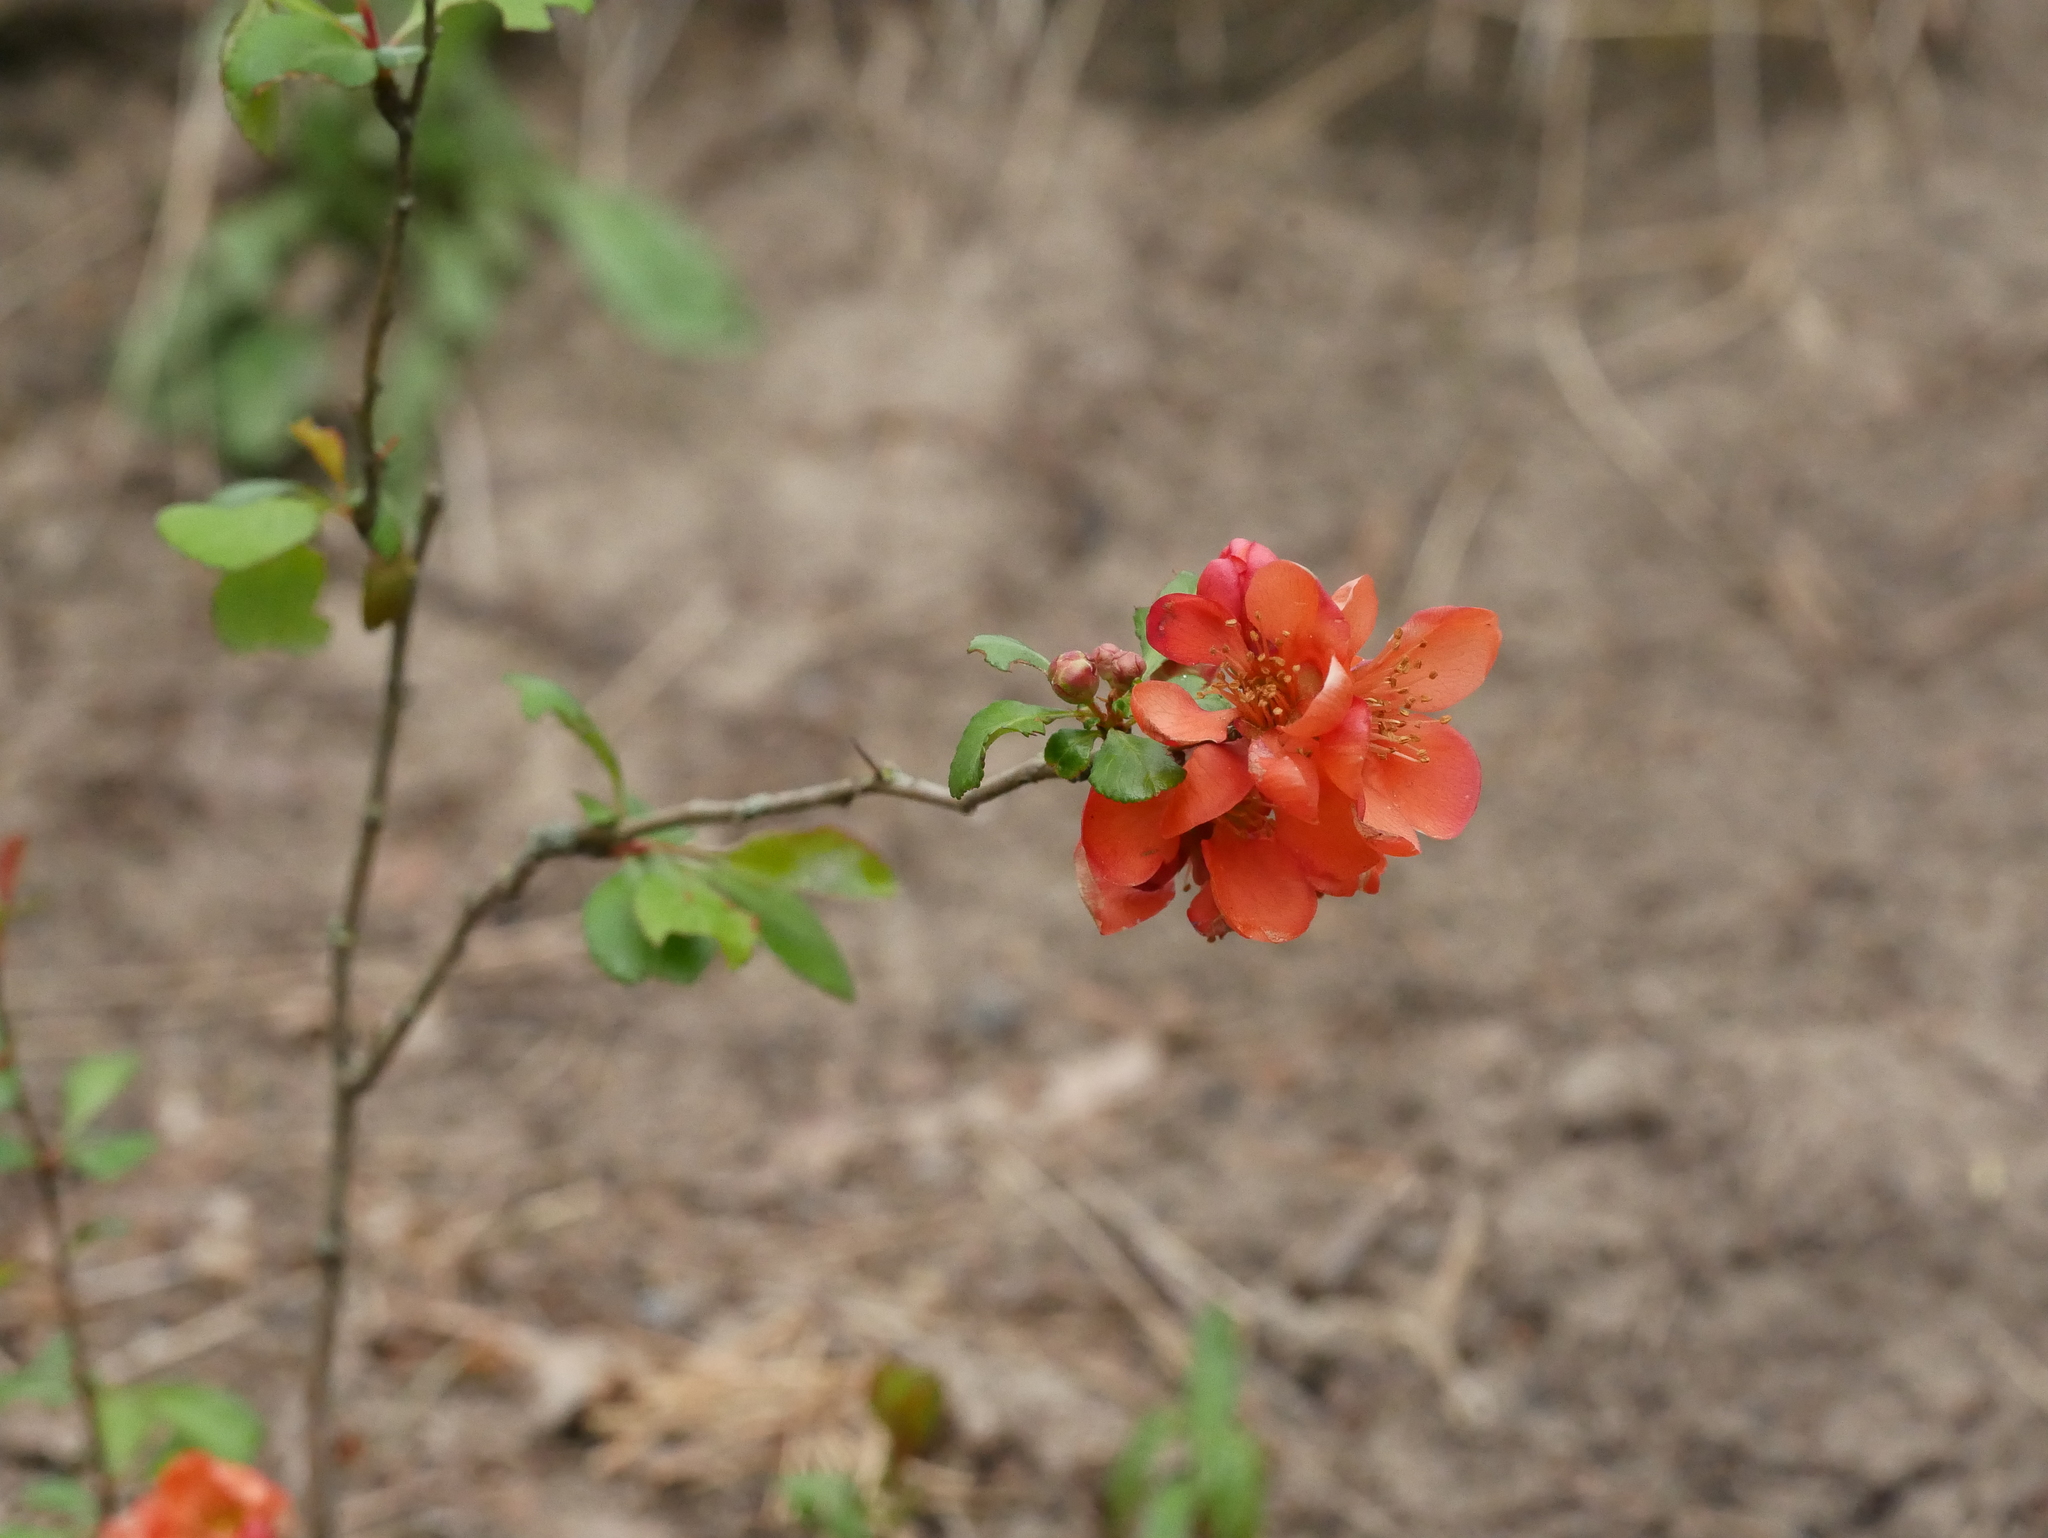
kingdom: Plantae
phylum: Tracheophyta
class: Magnoliopsida
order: Rosales
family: Rosaceae
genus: Chaenomeles
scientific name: Chaenomeles japonica
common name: Japanese quince
